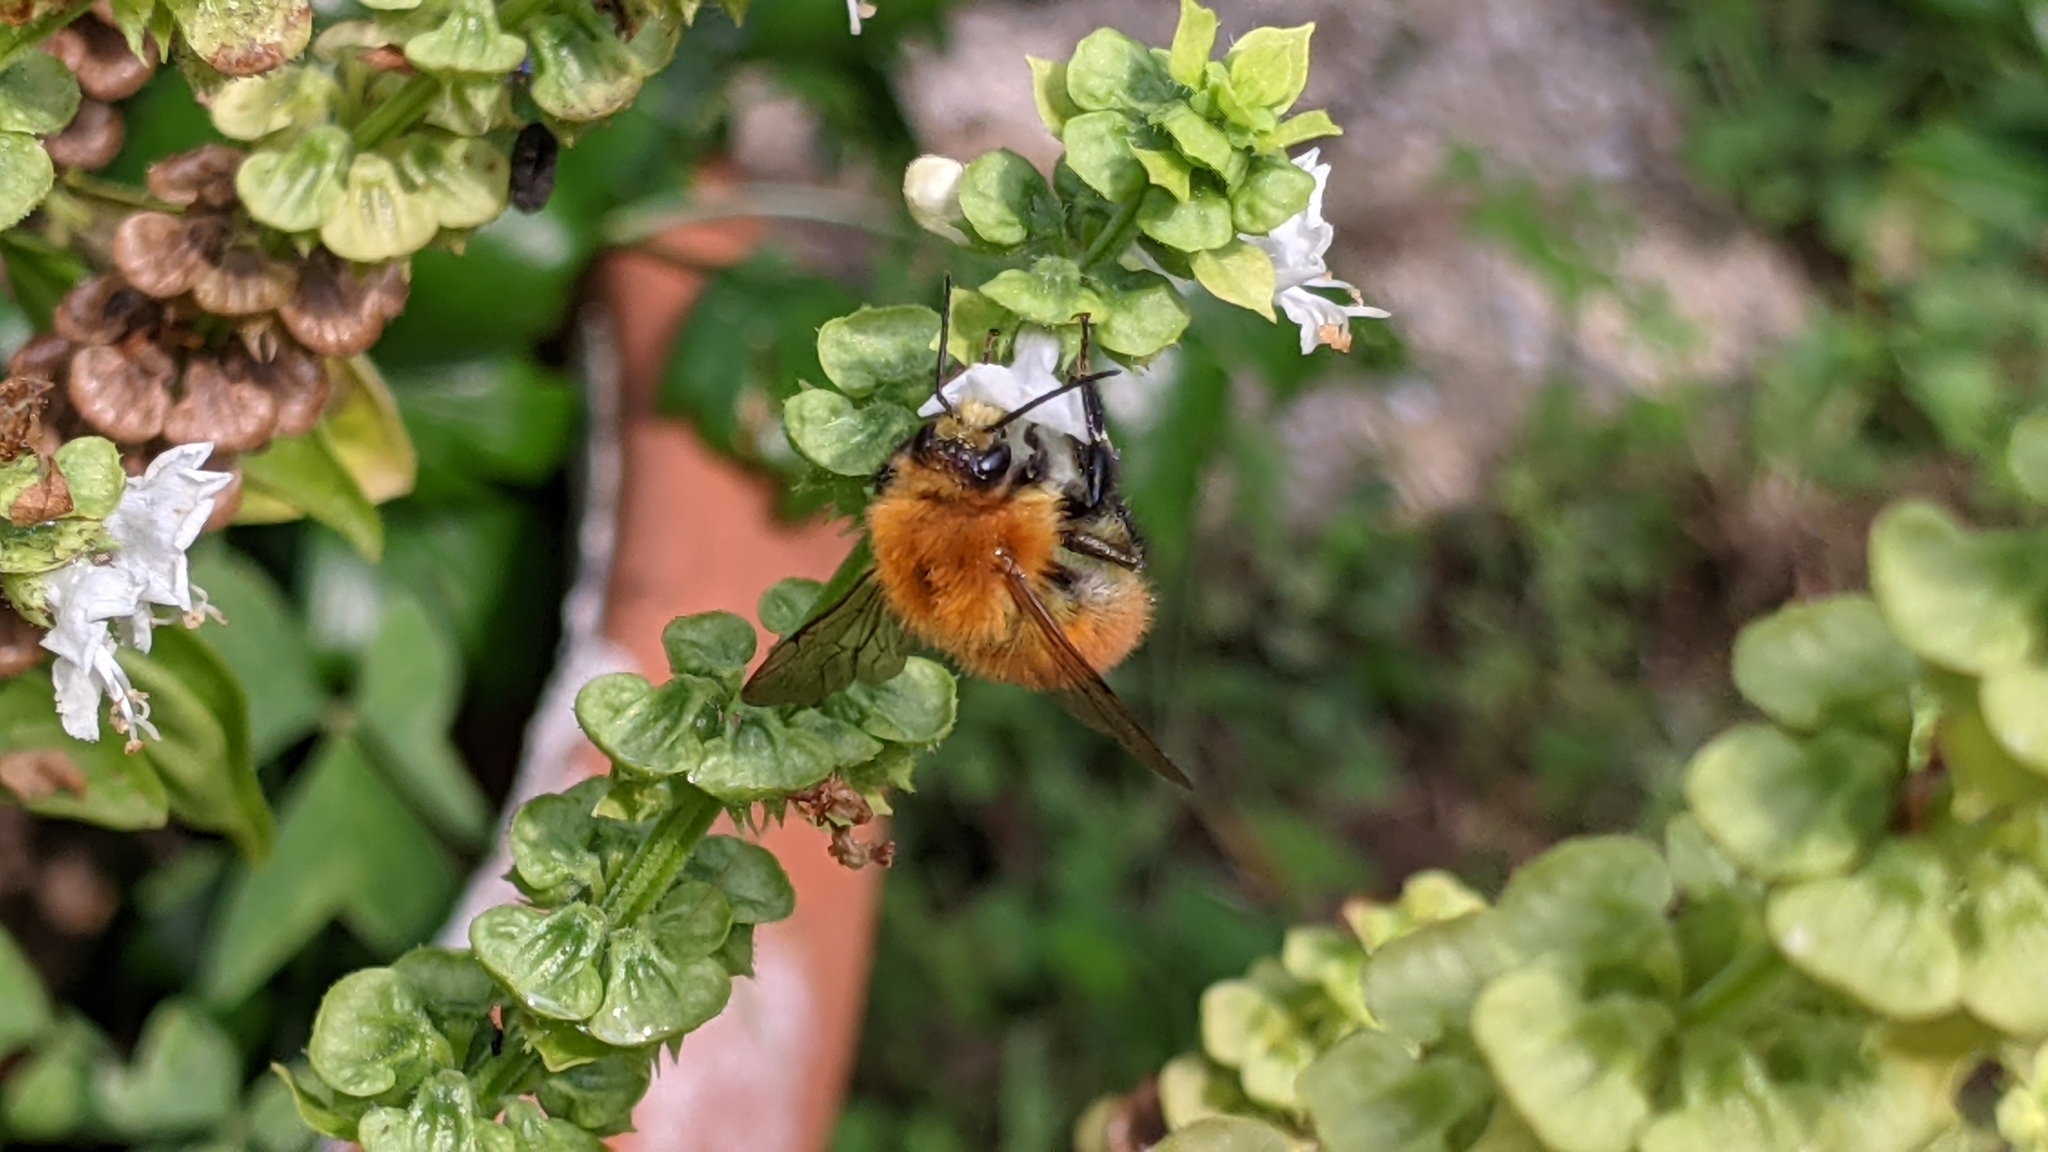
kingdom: Animalia
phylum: Arthropoda
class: Insecta
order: Hymenoptera
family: Apidae
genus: Bombus
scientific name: Bombus pascuorum
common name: Common carder bee
